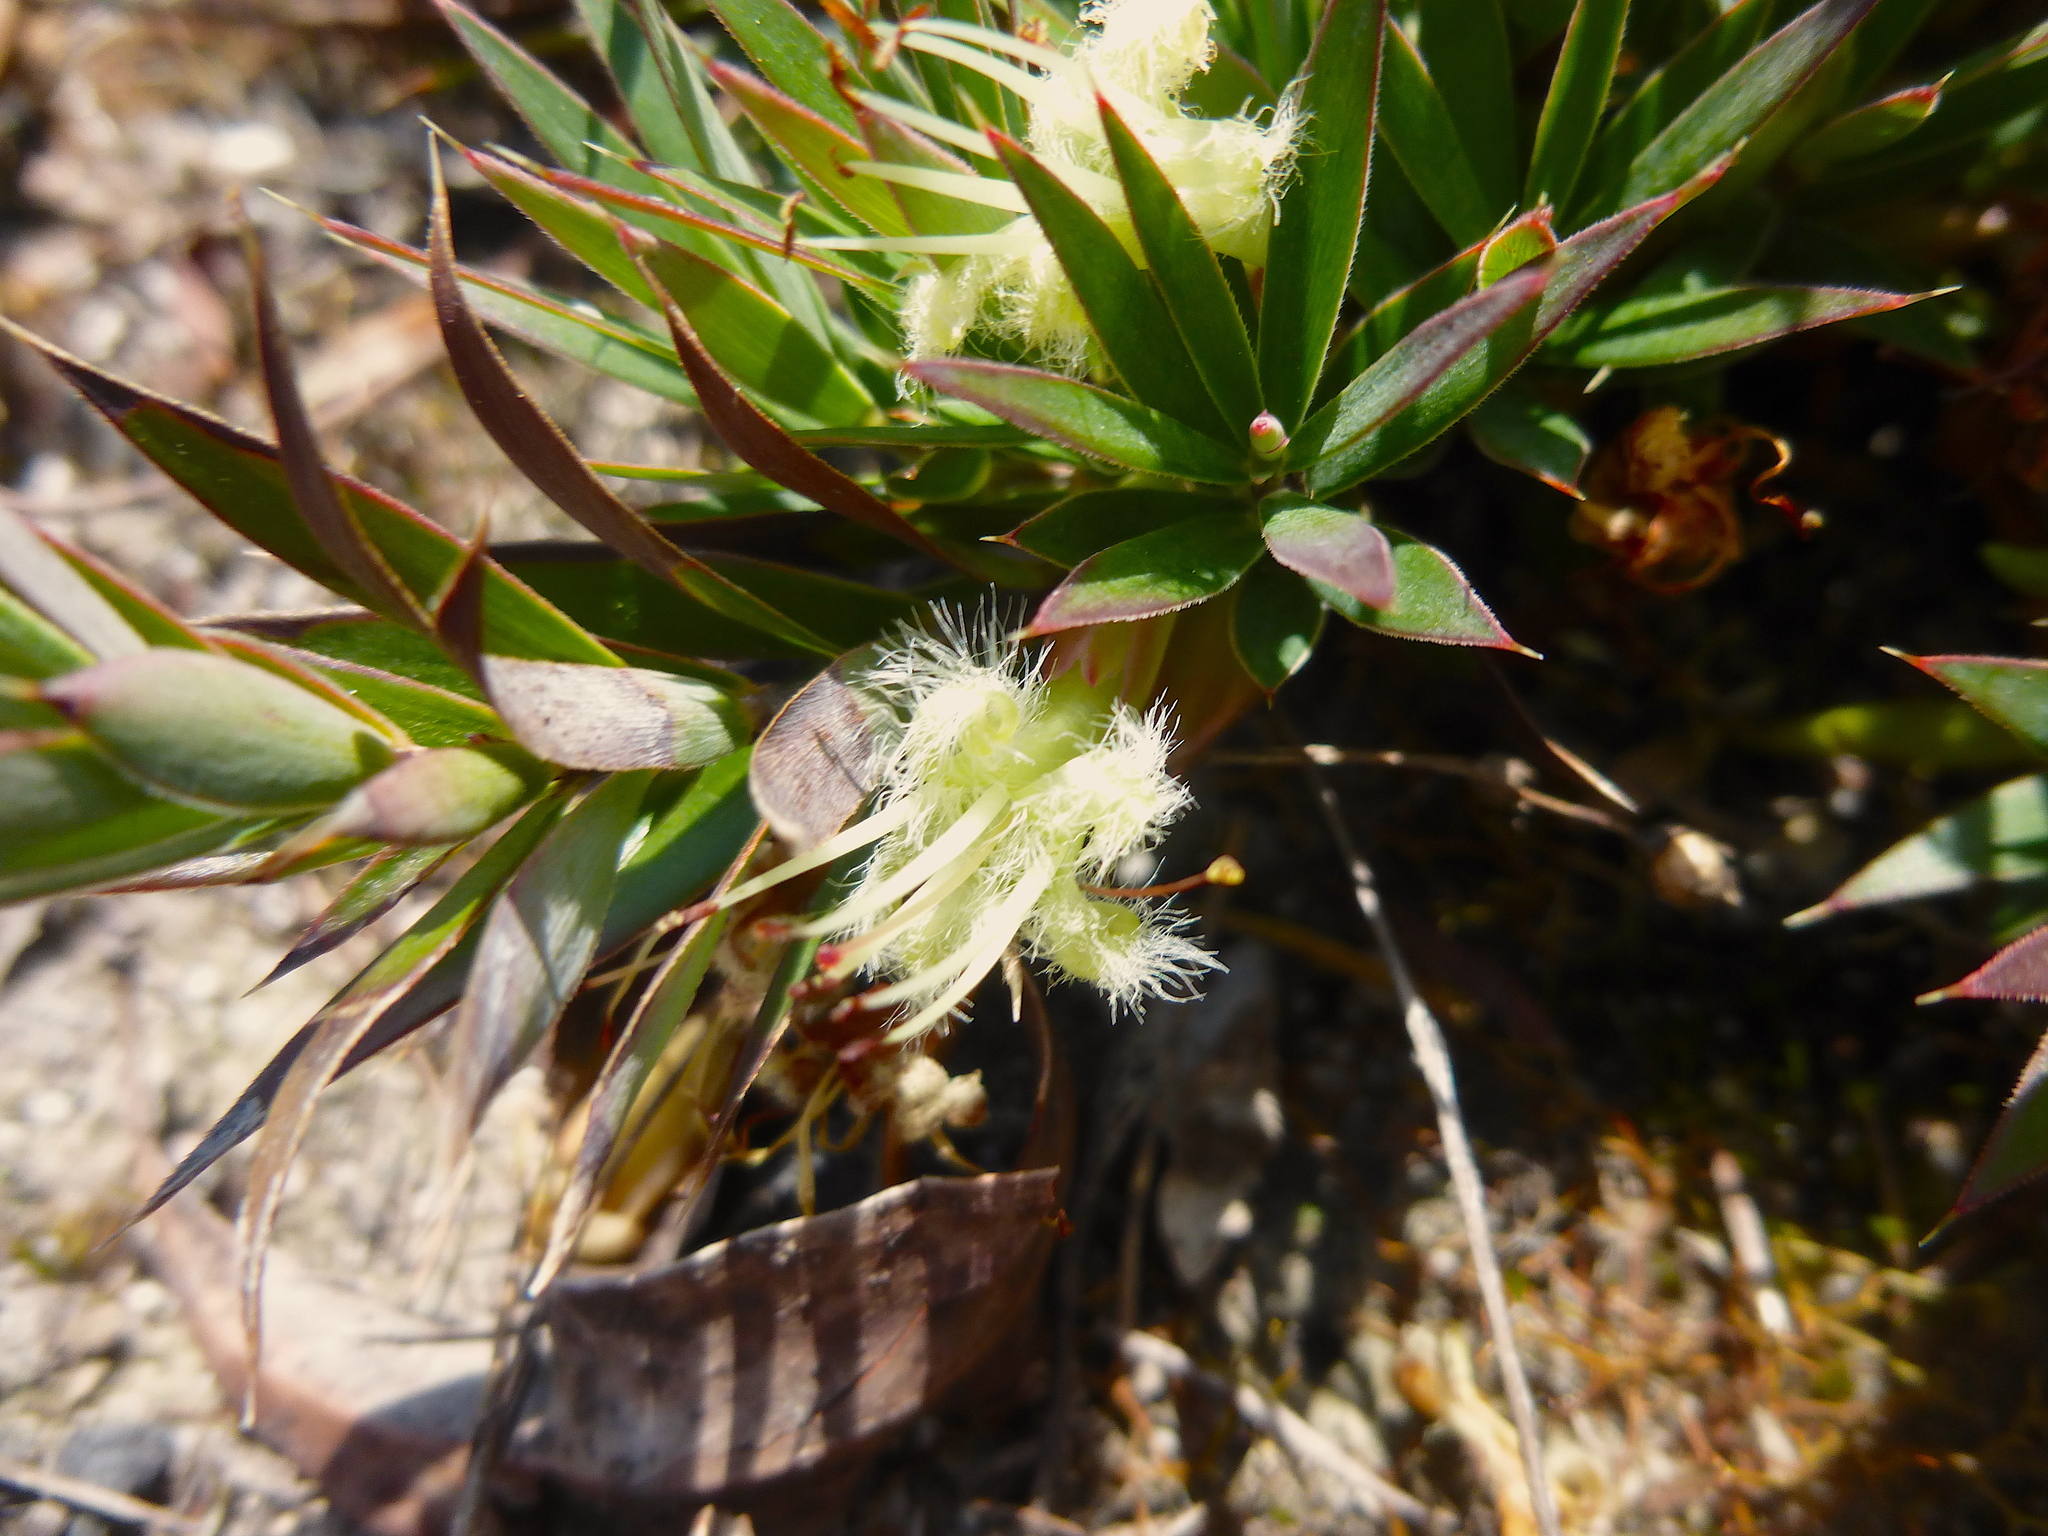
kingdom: Plantae
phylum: Tracheophyta
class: Magnoliopsida
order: Ericales
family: Ericaceae
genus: Styphelia
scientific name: Styphelia adscendens
